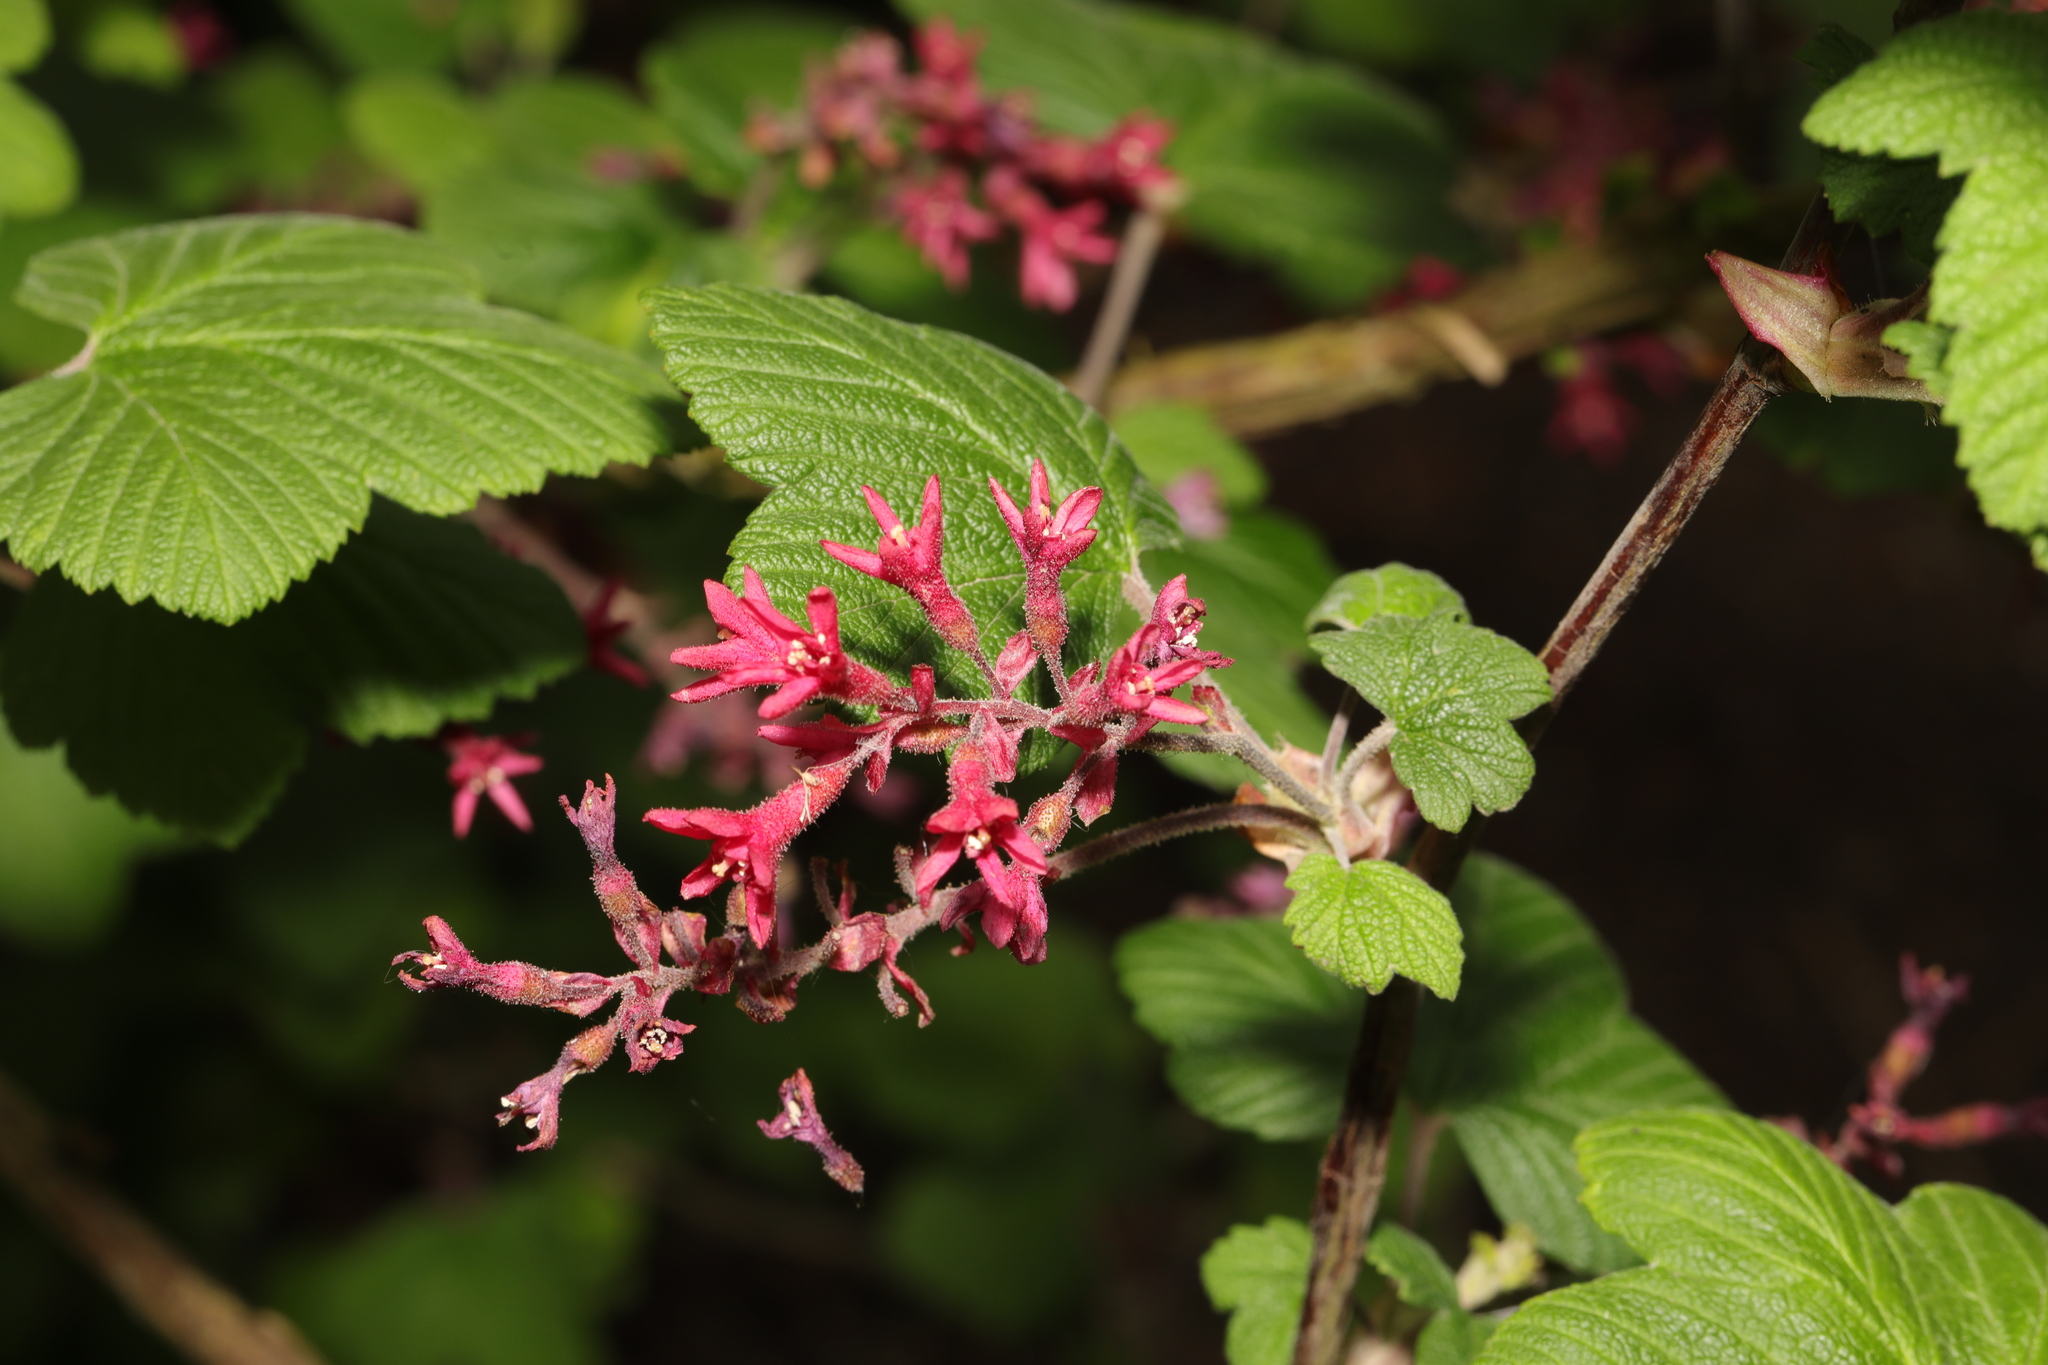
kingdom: Plantae
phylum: Tracheophyta
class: Magnoliopsida
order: Saxifragales
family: Grossulariaceae
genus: Ribes
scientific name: Ribes sanguineum
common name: Flowering currant
